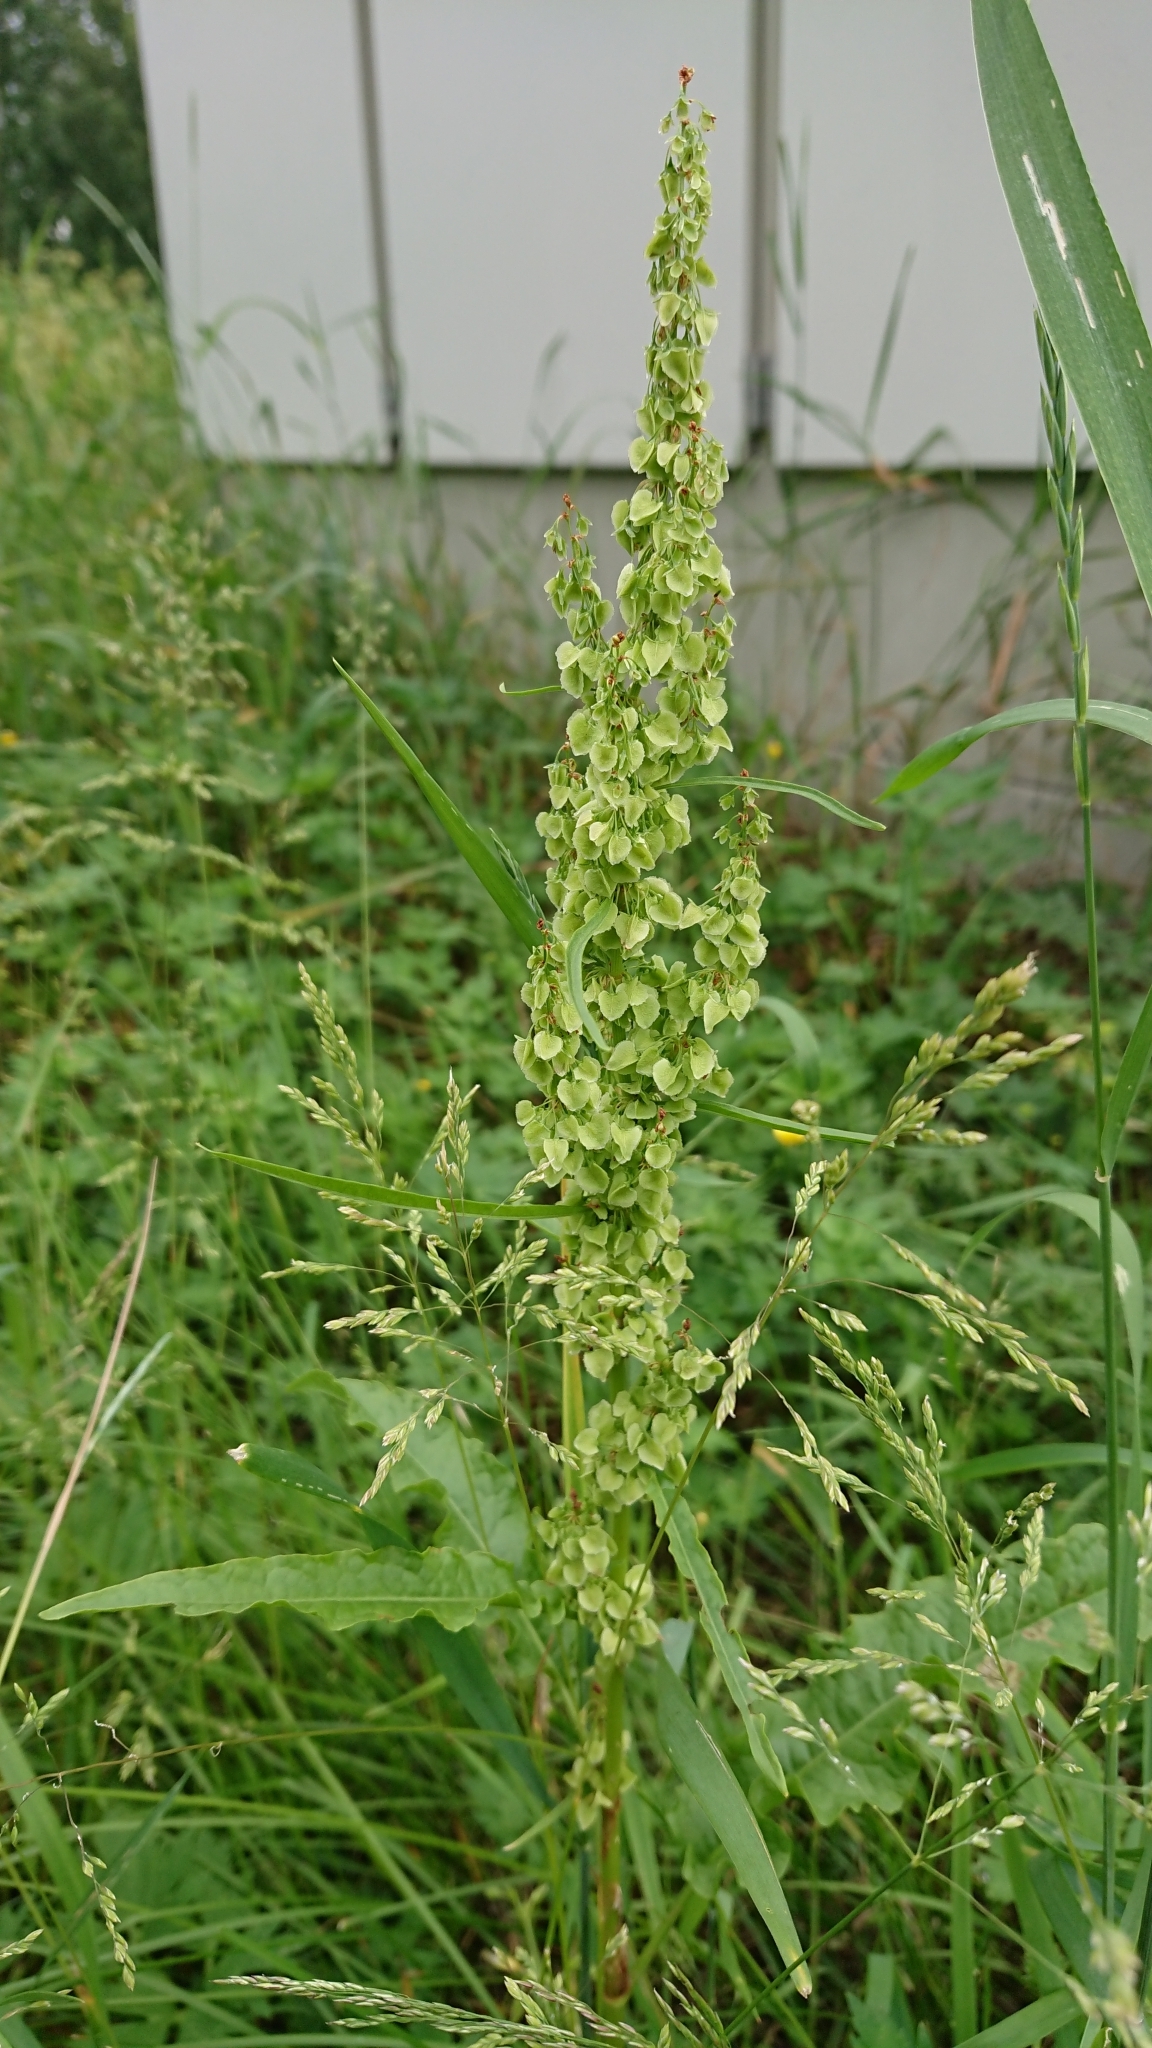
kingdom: Plantae
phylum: Tracheophyta
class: Magnoliopsida
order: Caryophyllales
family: Polygonaceae
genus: Rumex
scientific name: Rumex longifolius
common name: Dooryard dock
